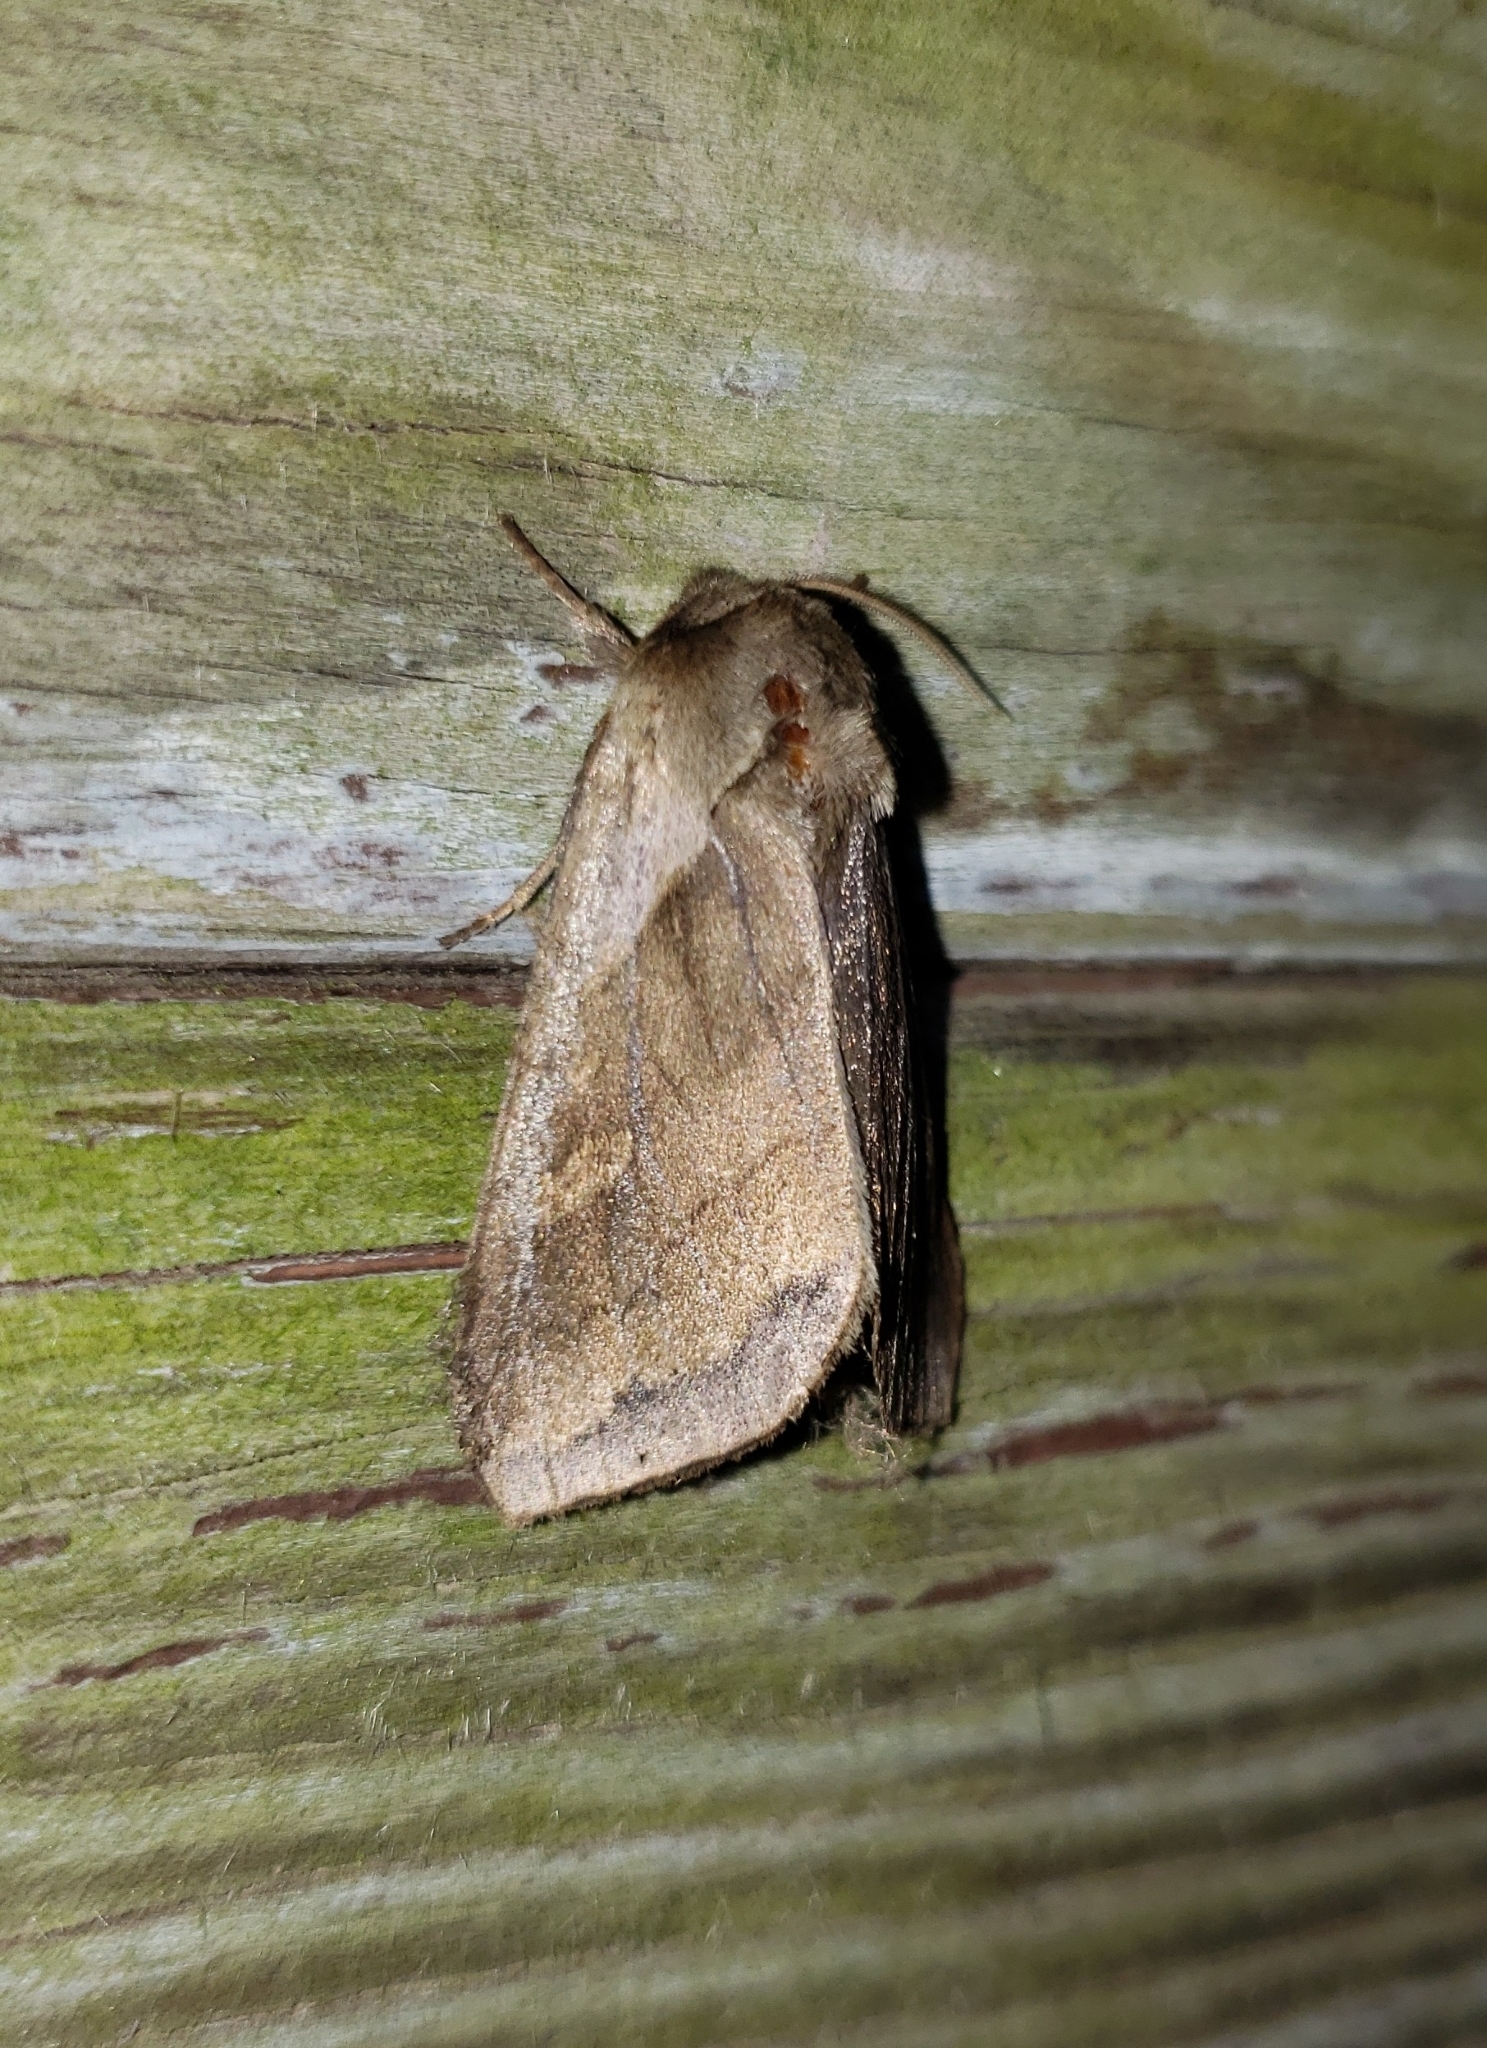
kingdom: Animalia
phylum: Arthropoda
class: Insecta
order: Lepidoptera
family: Noctuidae
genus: Bellura
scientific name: Bellura obliqua
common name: Cattail borer moth
